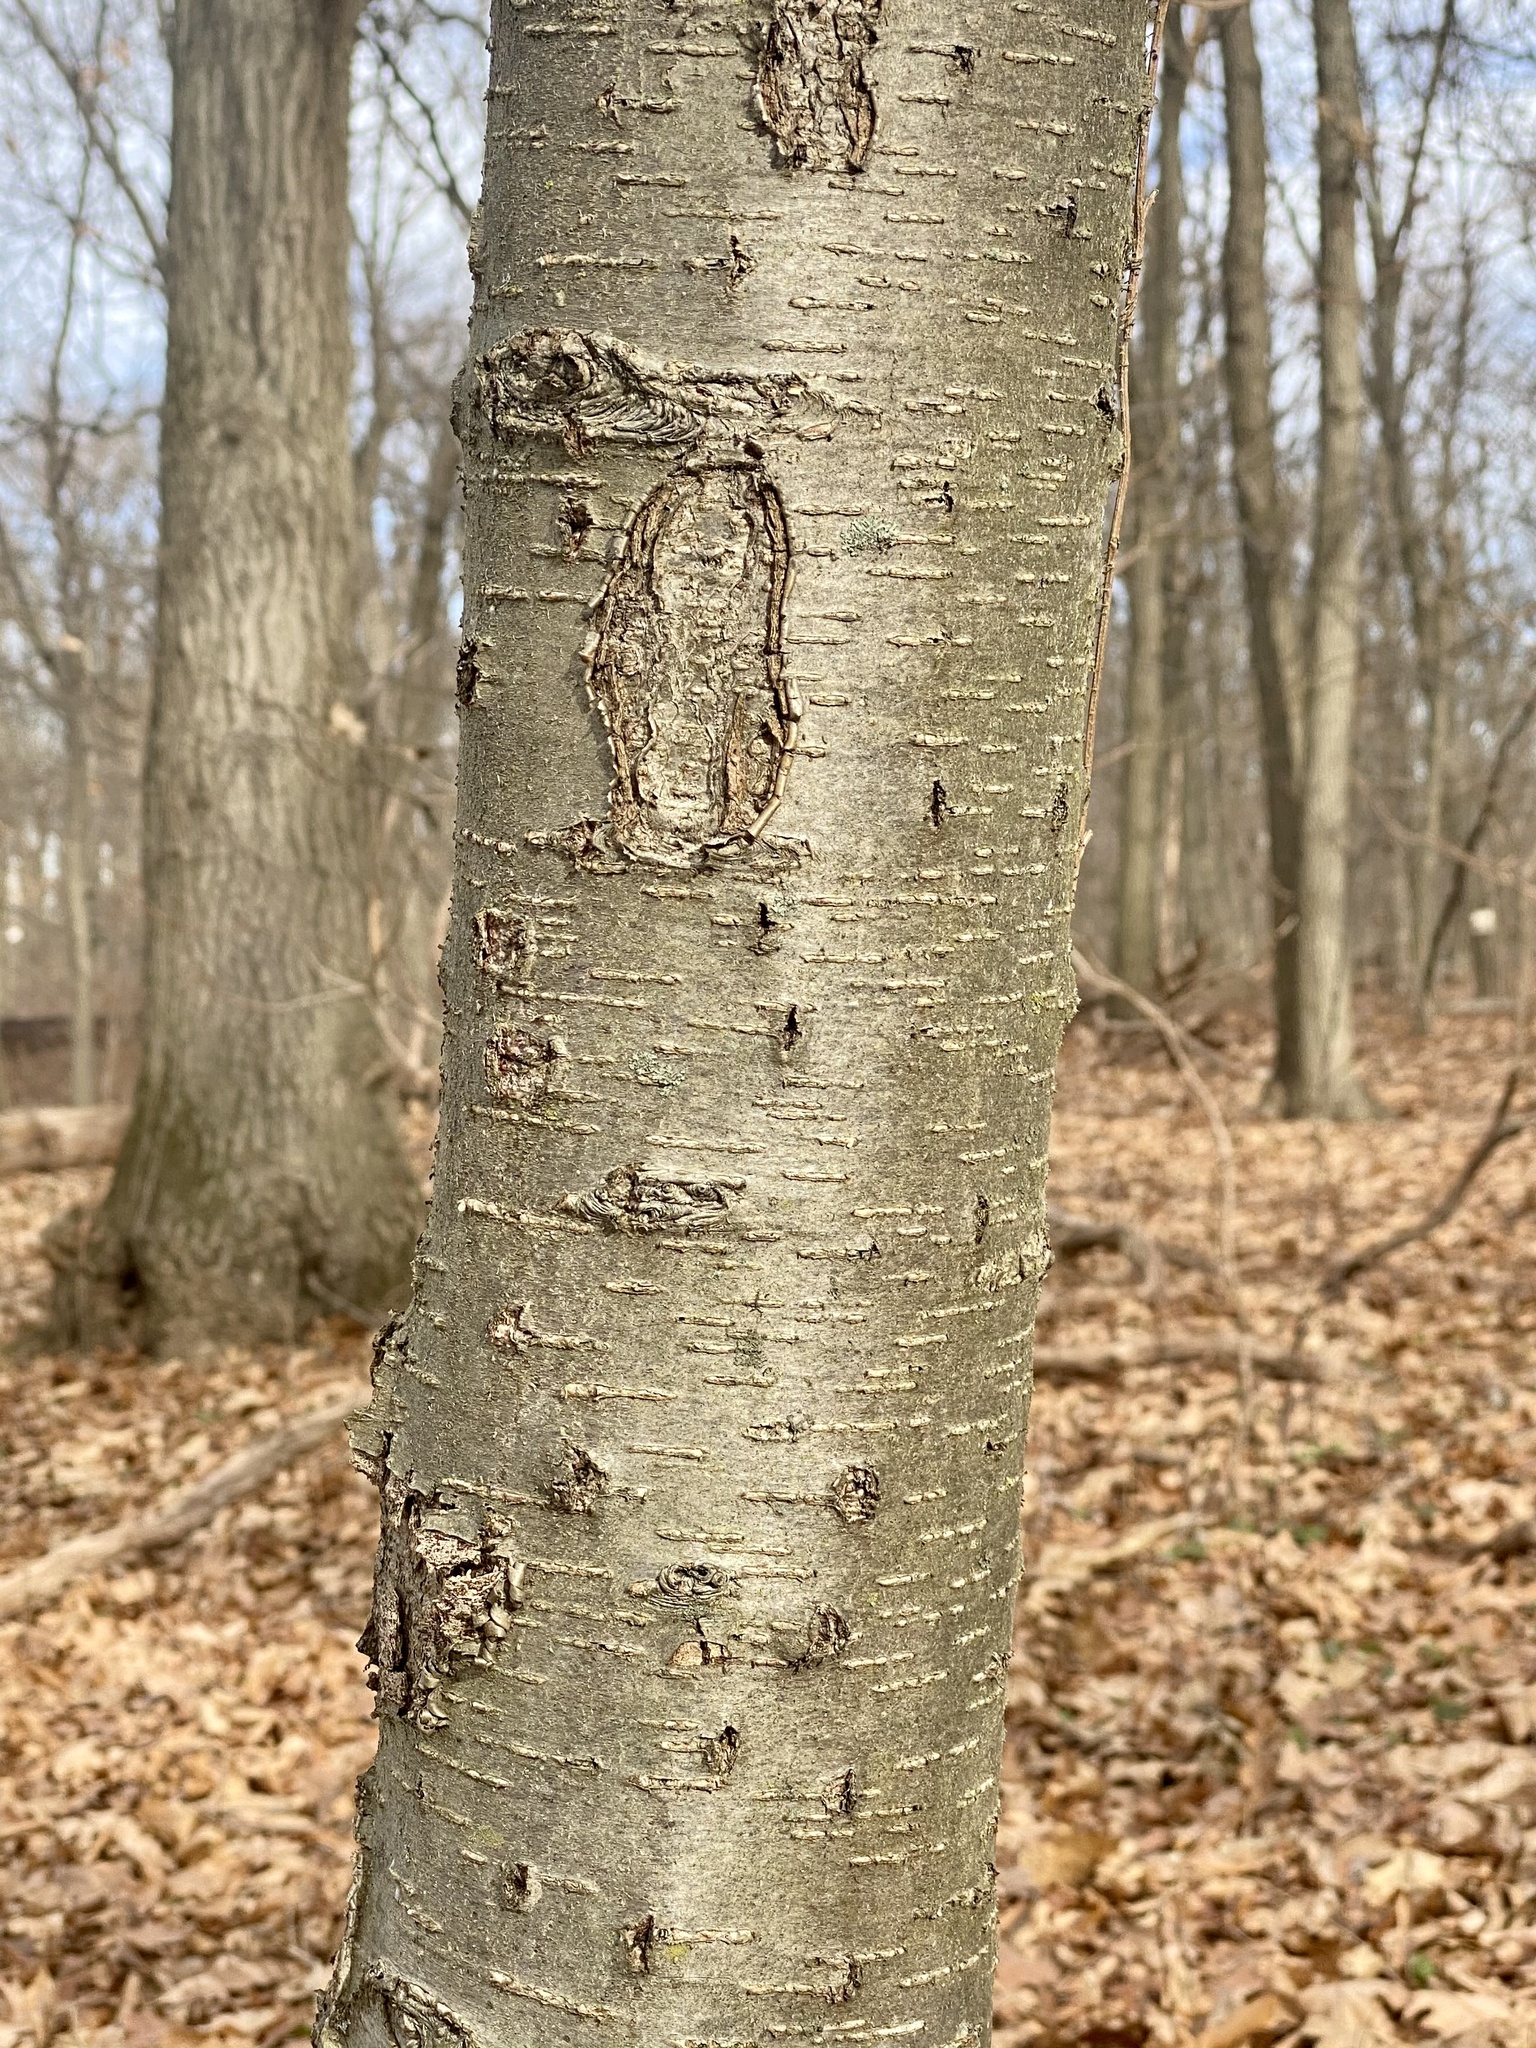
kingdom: Plantae
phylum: Tracheophyta
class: Magnoliopsida
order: Fagales
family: Betulaceae
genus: Betula
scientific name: Betula lenta
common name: Black birch
